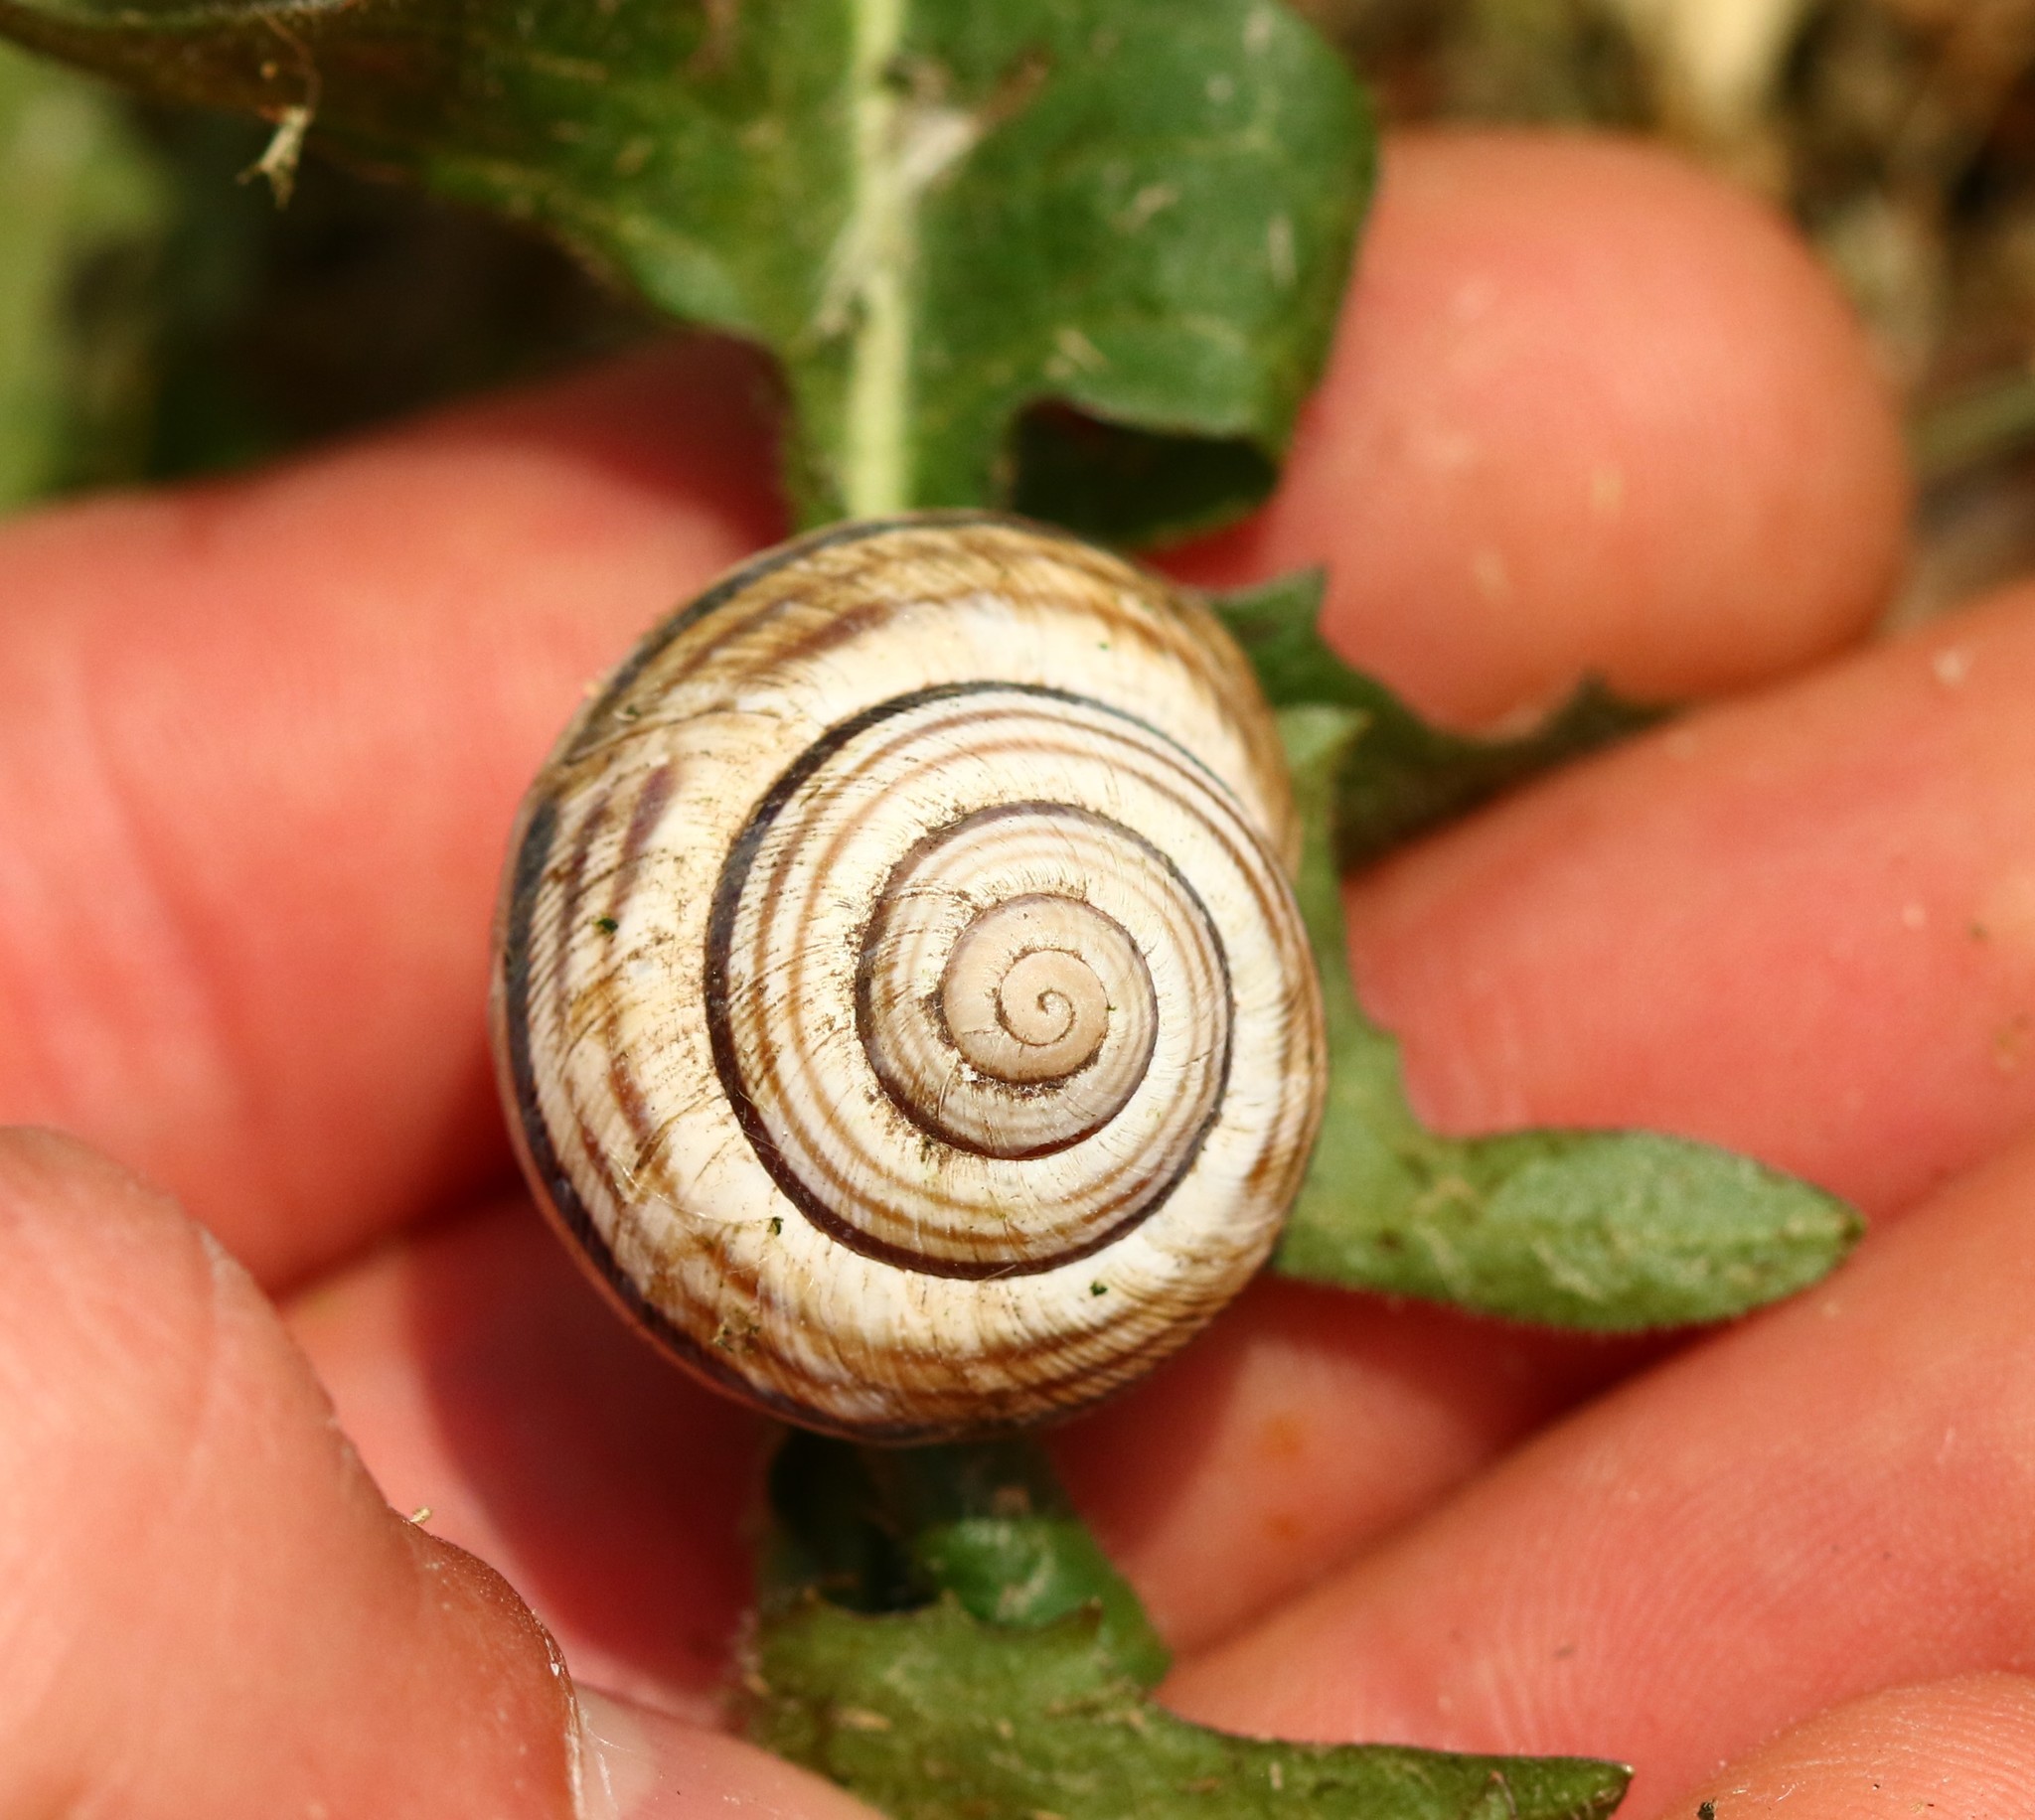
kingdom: Animalia
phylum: Mollusca
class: Gastropoda
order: Stylommatophora
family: Helicidae
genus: Caucasotachea
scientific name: Caucasotachea vindobonensis
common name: European helicid land snail
